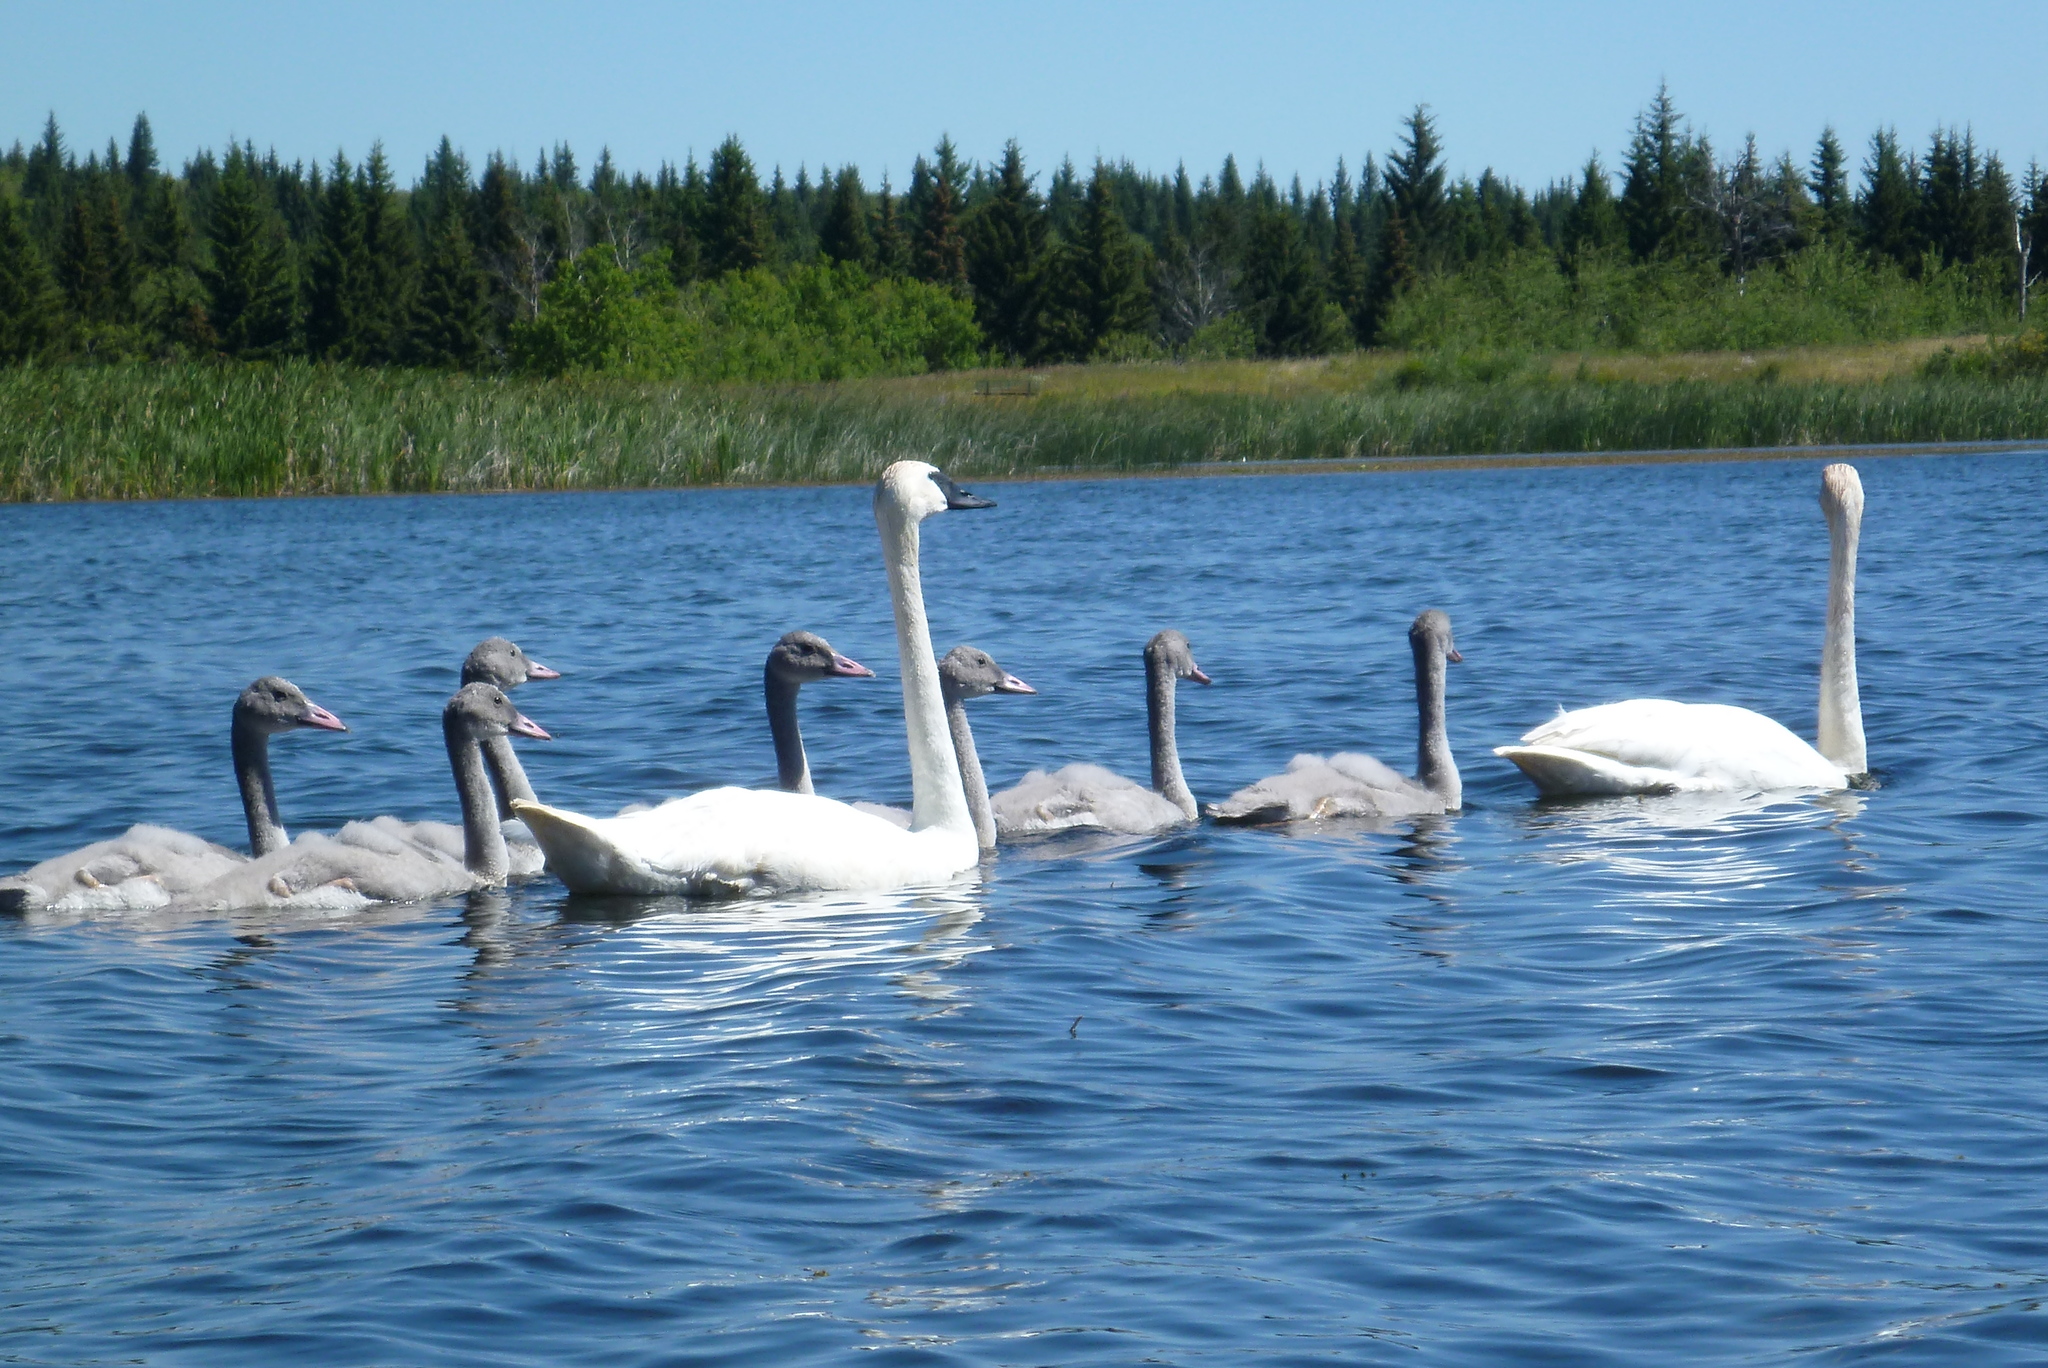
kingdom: Animalia
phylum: Chordata
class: Aves
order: Anseriformes
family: Anatidae
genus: Cygnus
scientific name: Cygnus buccinator
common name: Trumpeter swan
